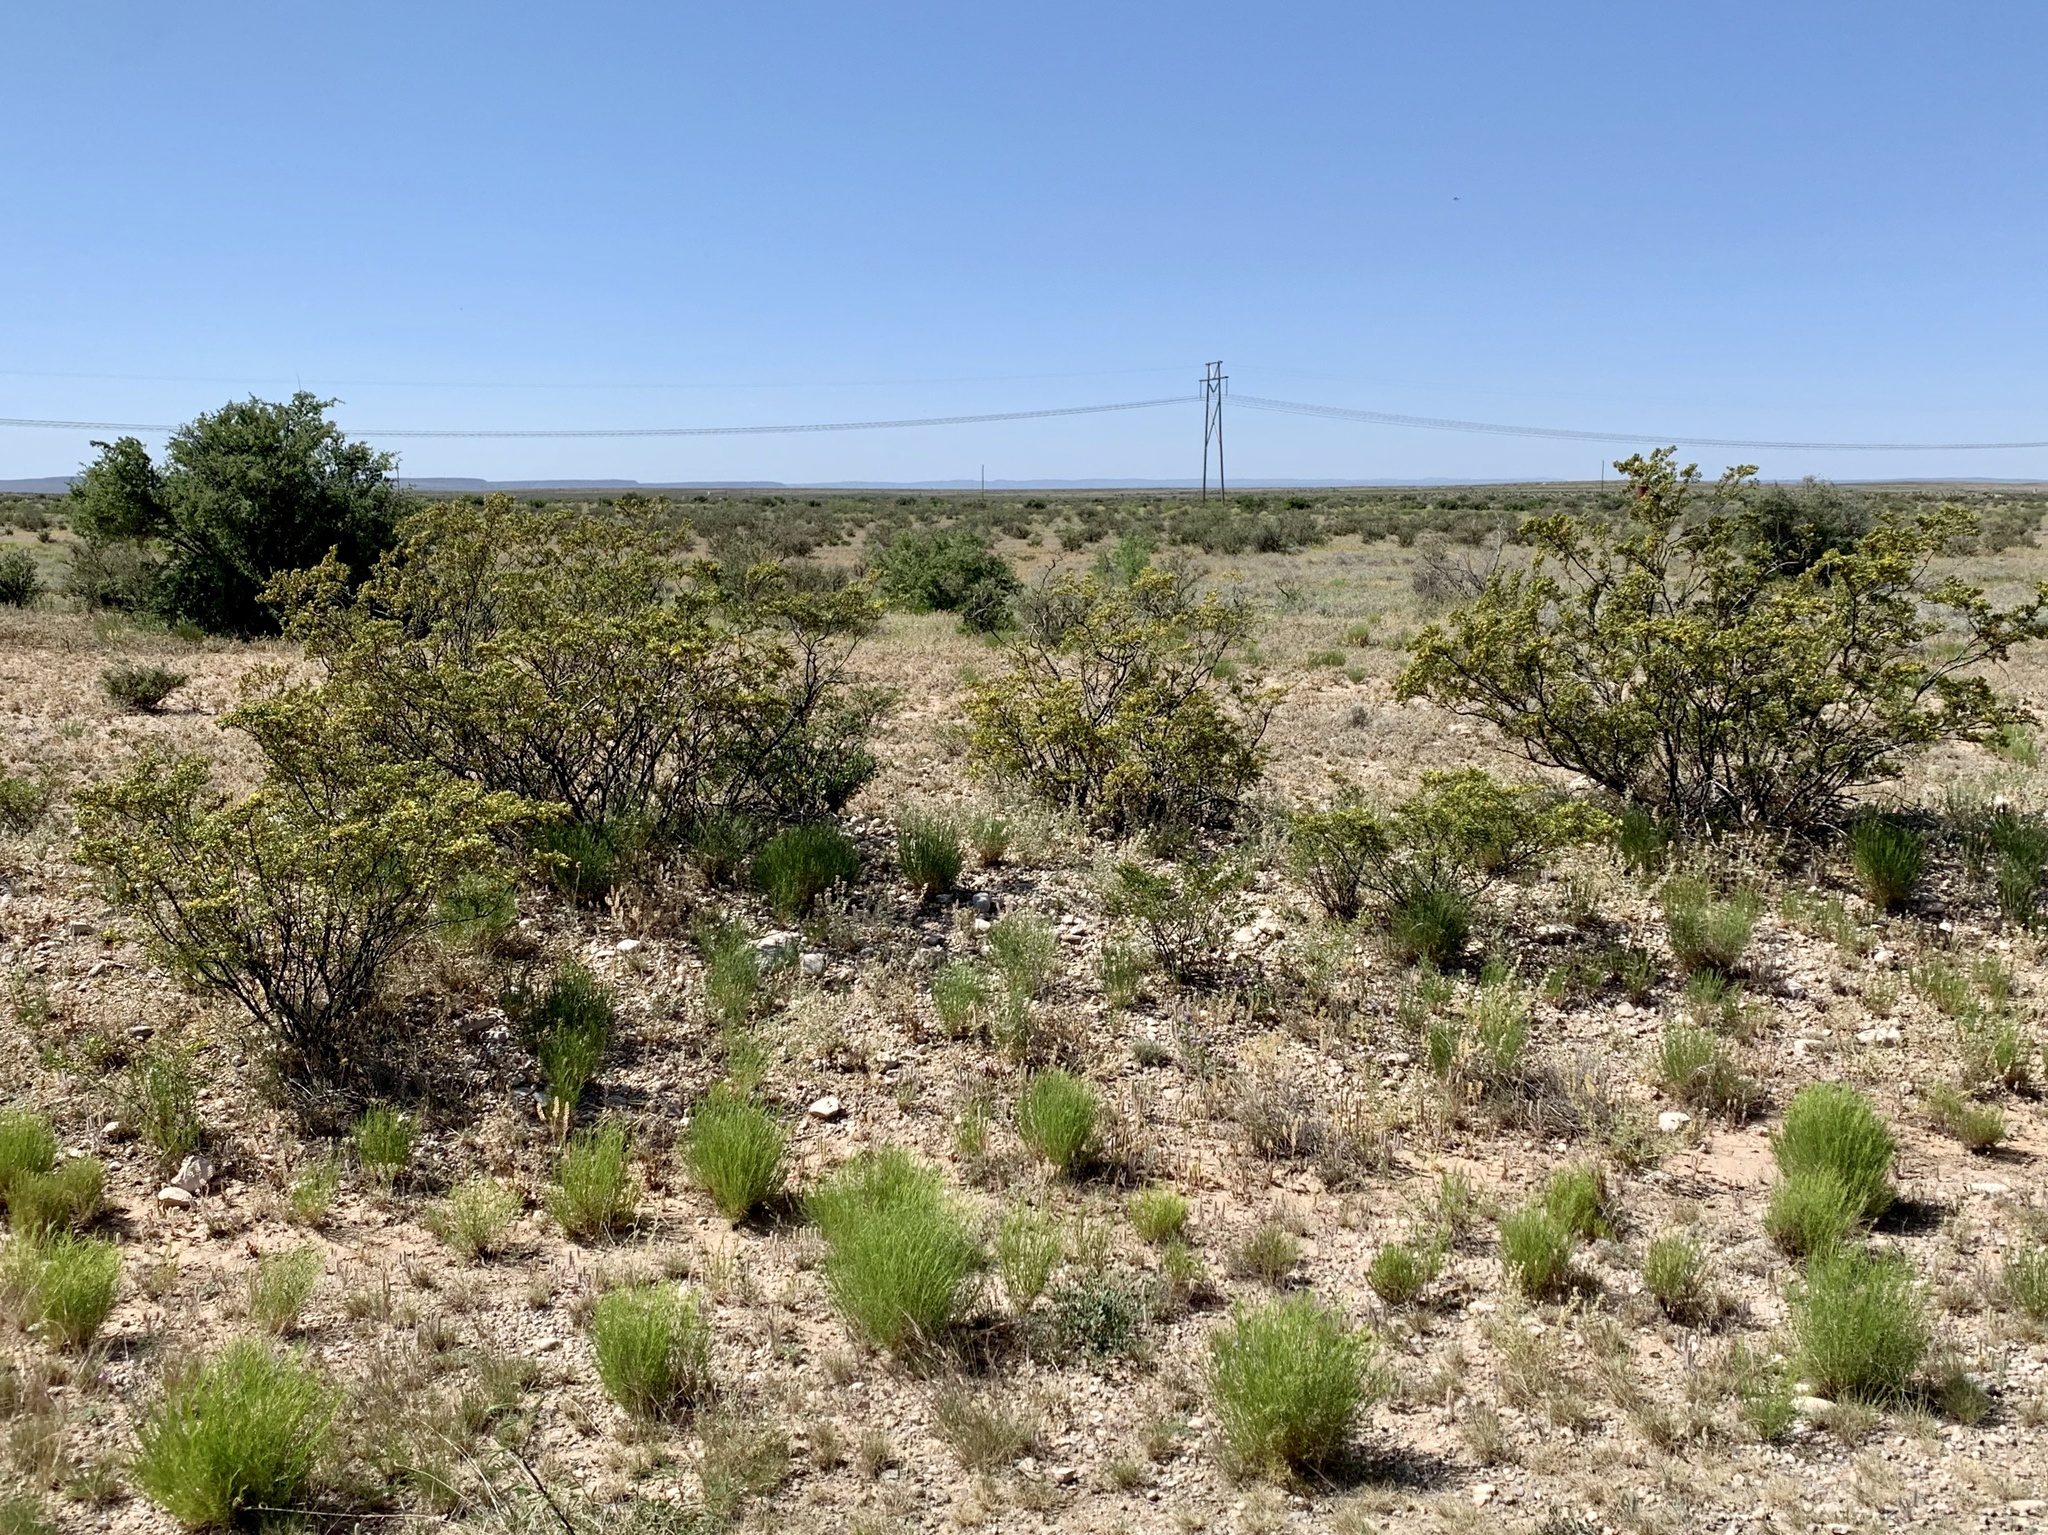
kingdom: Plantae
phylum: Tracheophyta
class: Magnoliopsida
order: Zygophyllales
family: Zygophyllaceae
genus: Larrea
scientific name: Larrea tridentata
